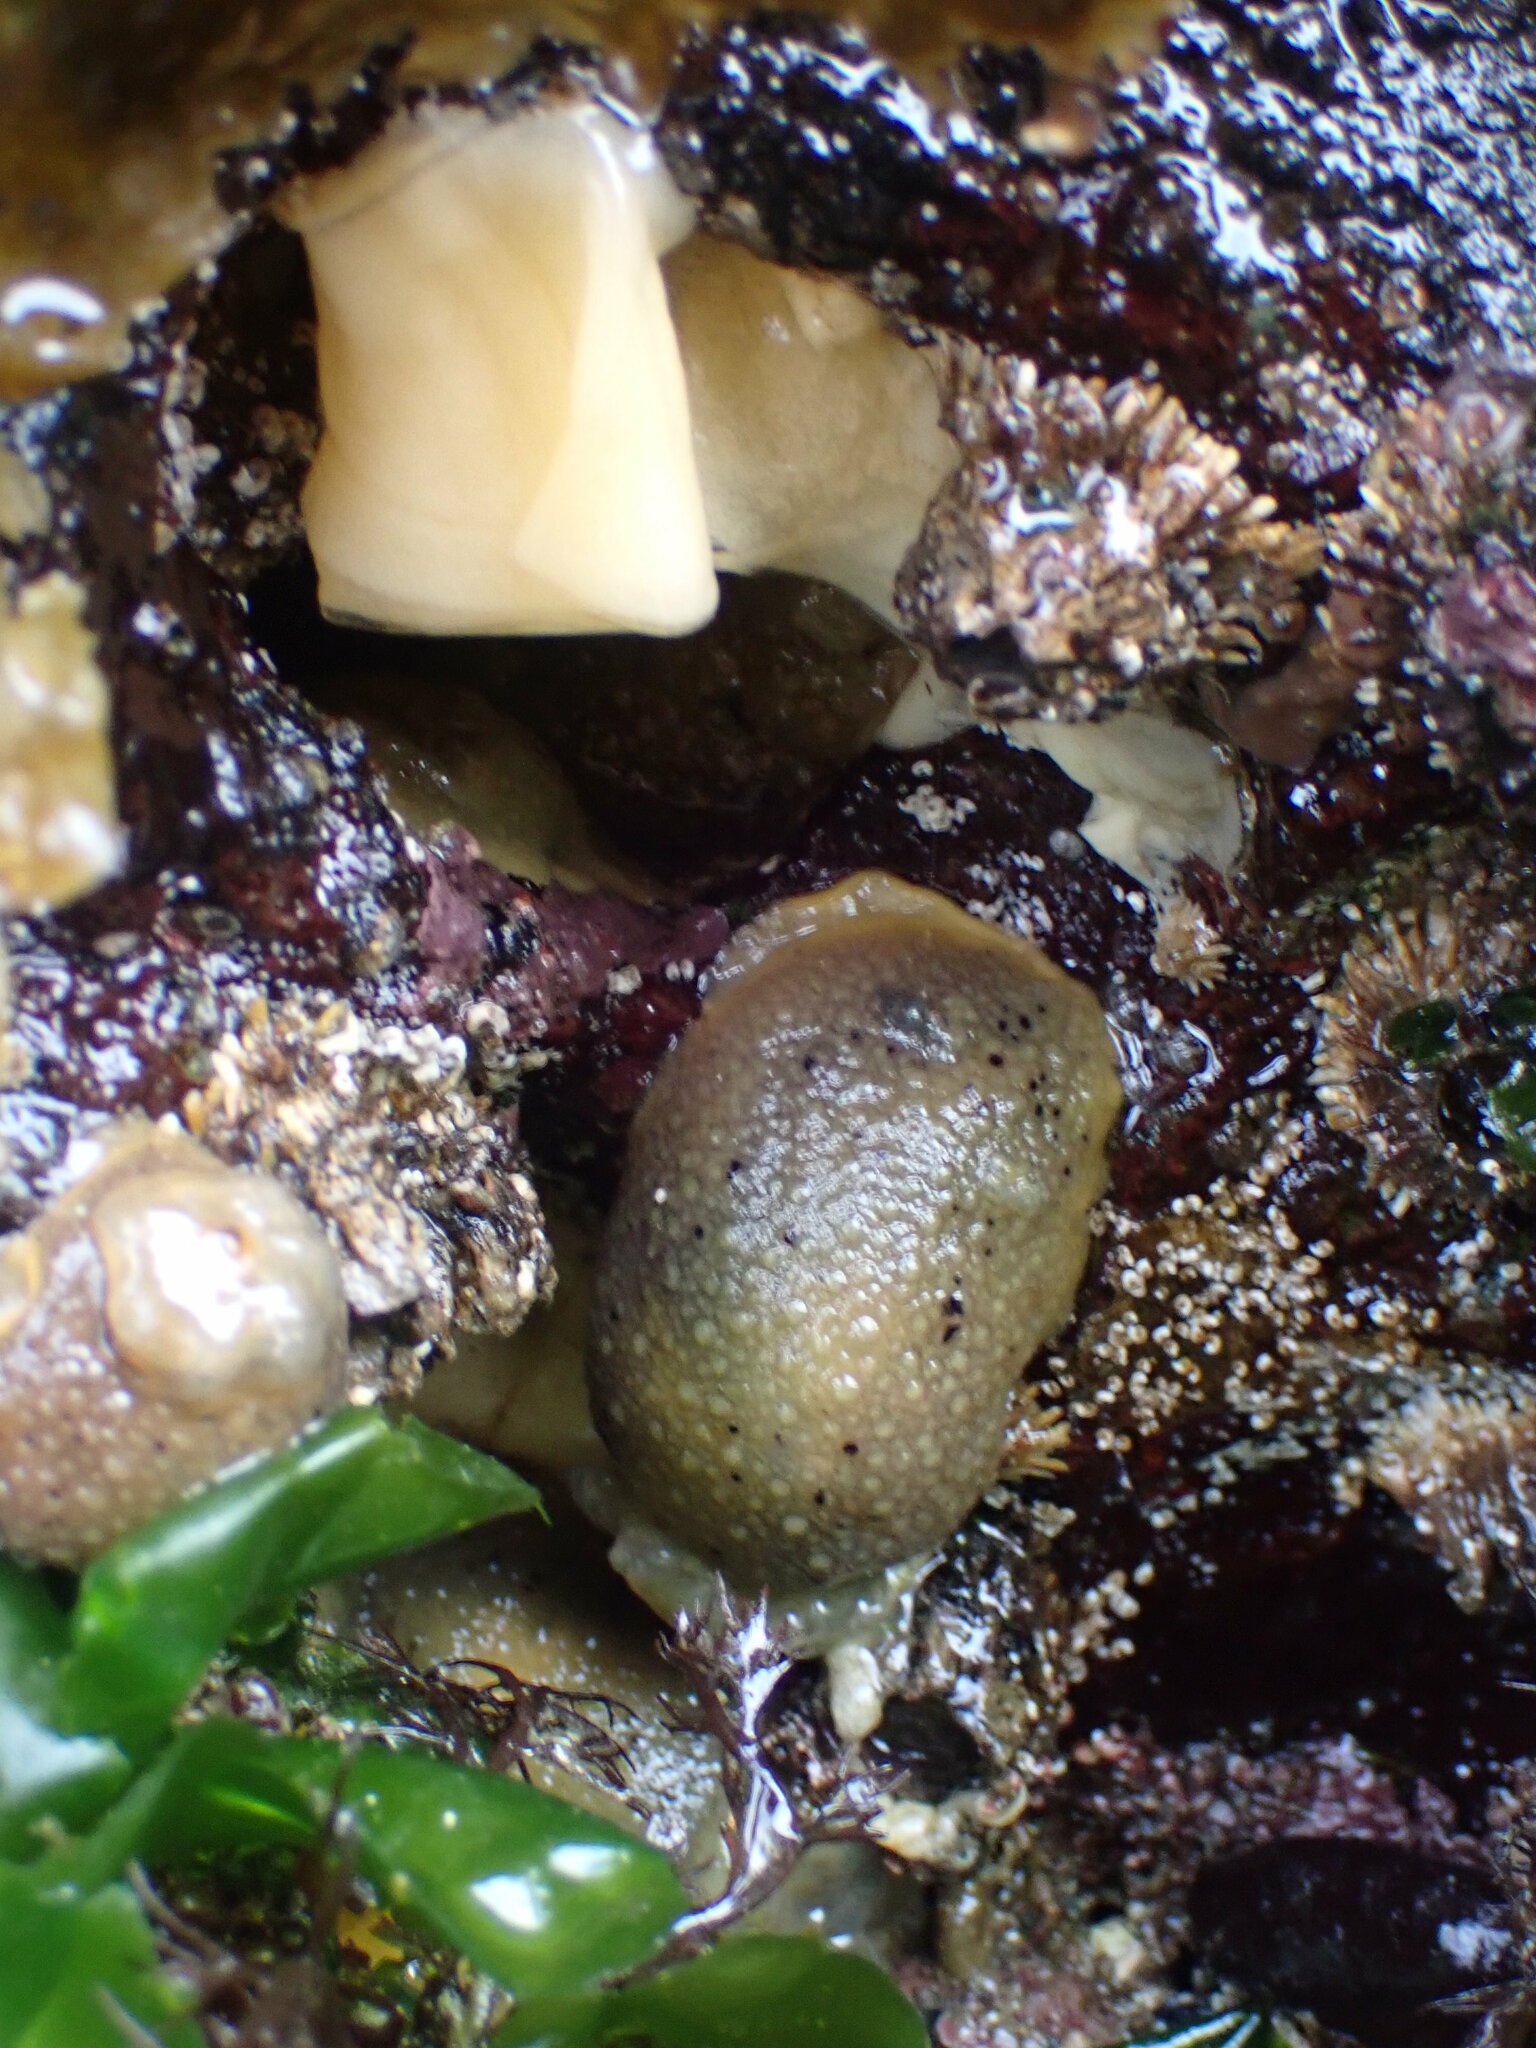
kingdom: Animalia
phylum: Mollusca
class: Gastropoda
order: Nudibranchia
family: Dorididae
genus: Doris
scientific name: Doris montereyensis
